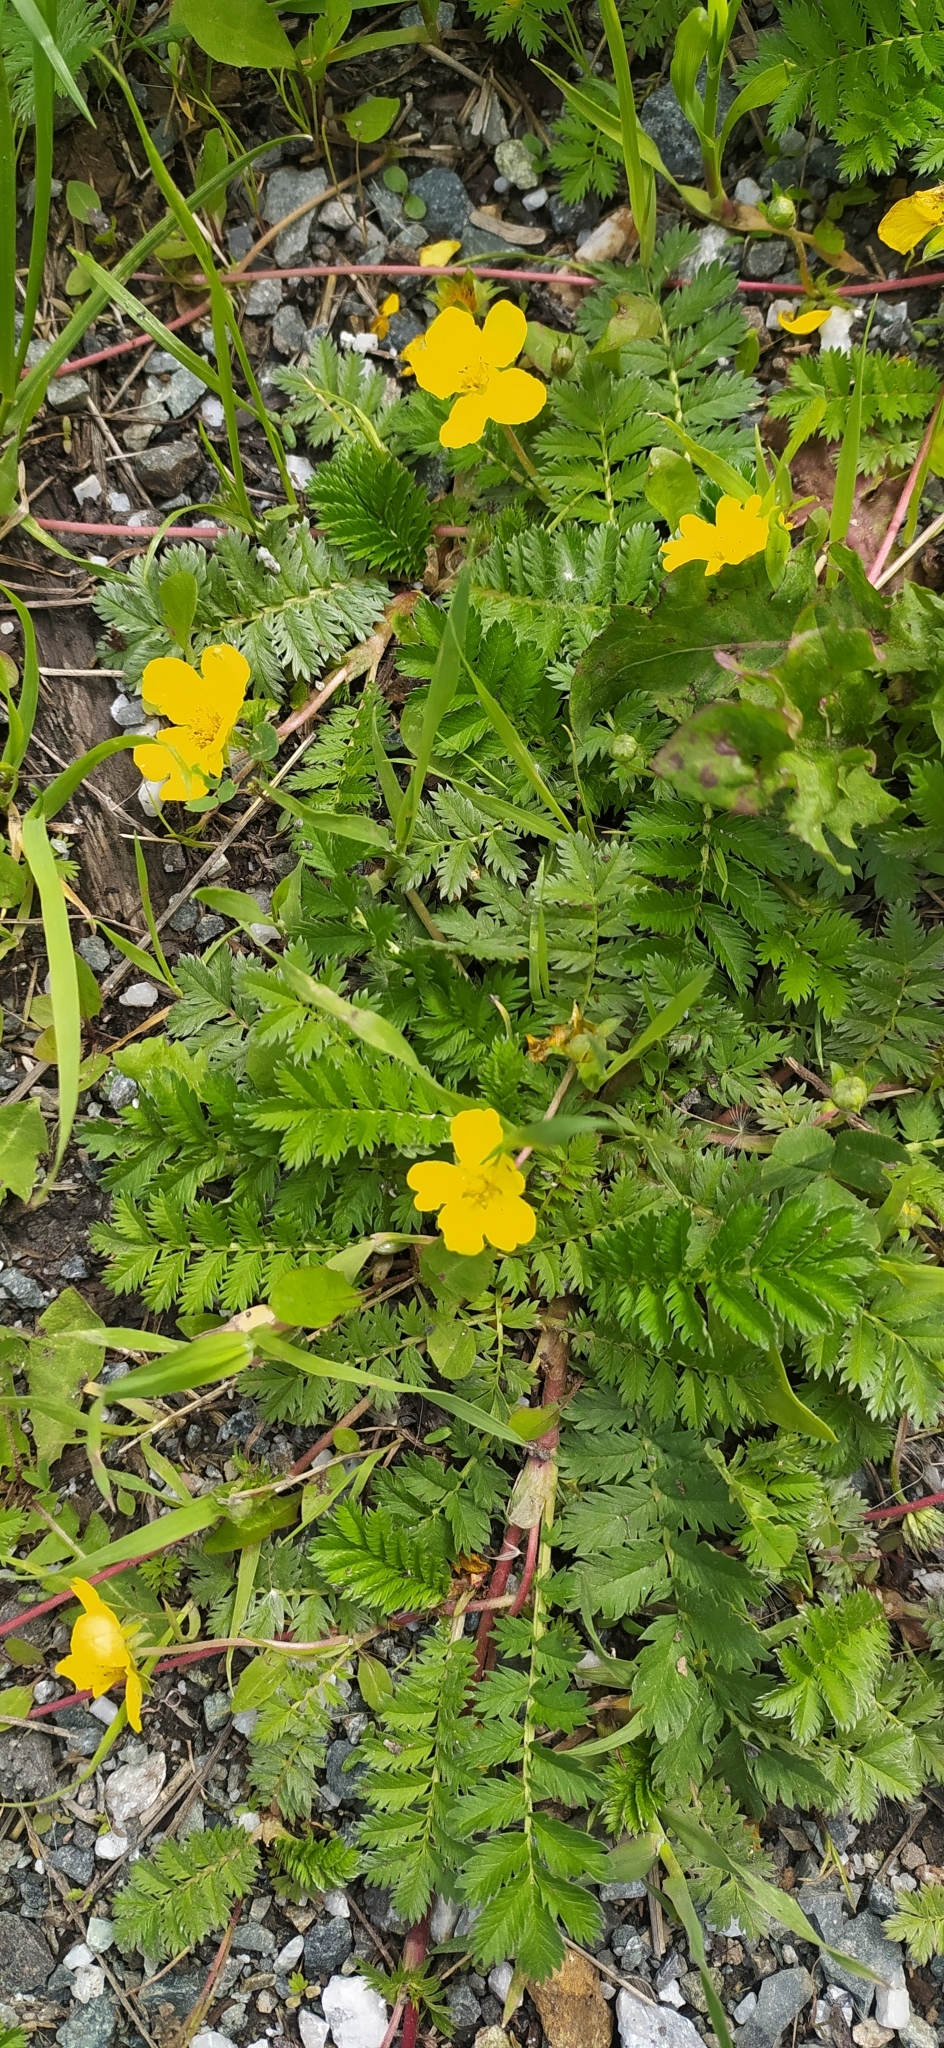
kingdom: Plantae
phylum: Tracheophyta
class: Magnoliopsida
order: Rosales
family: Rosaceae
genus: Argentina
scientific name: Argentina anserina
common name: Common silverweed
